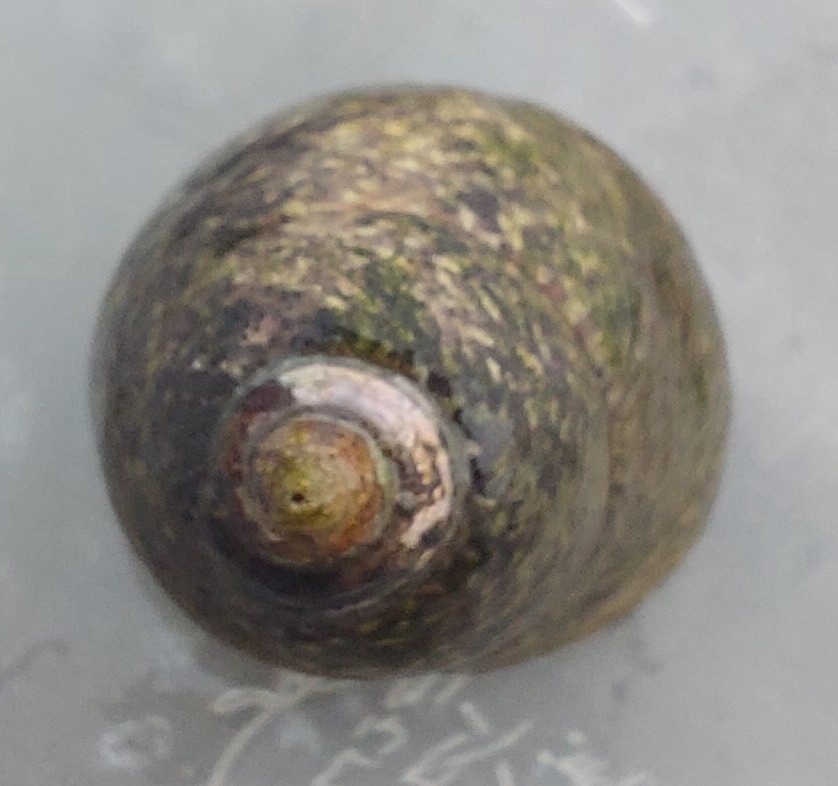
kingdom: Animalia
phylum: Mollusca
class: Gastropoda
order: Trochida
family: Trochidae
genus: Phorcus
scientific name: Phorcus lineatus
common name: Toothed top shell
